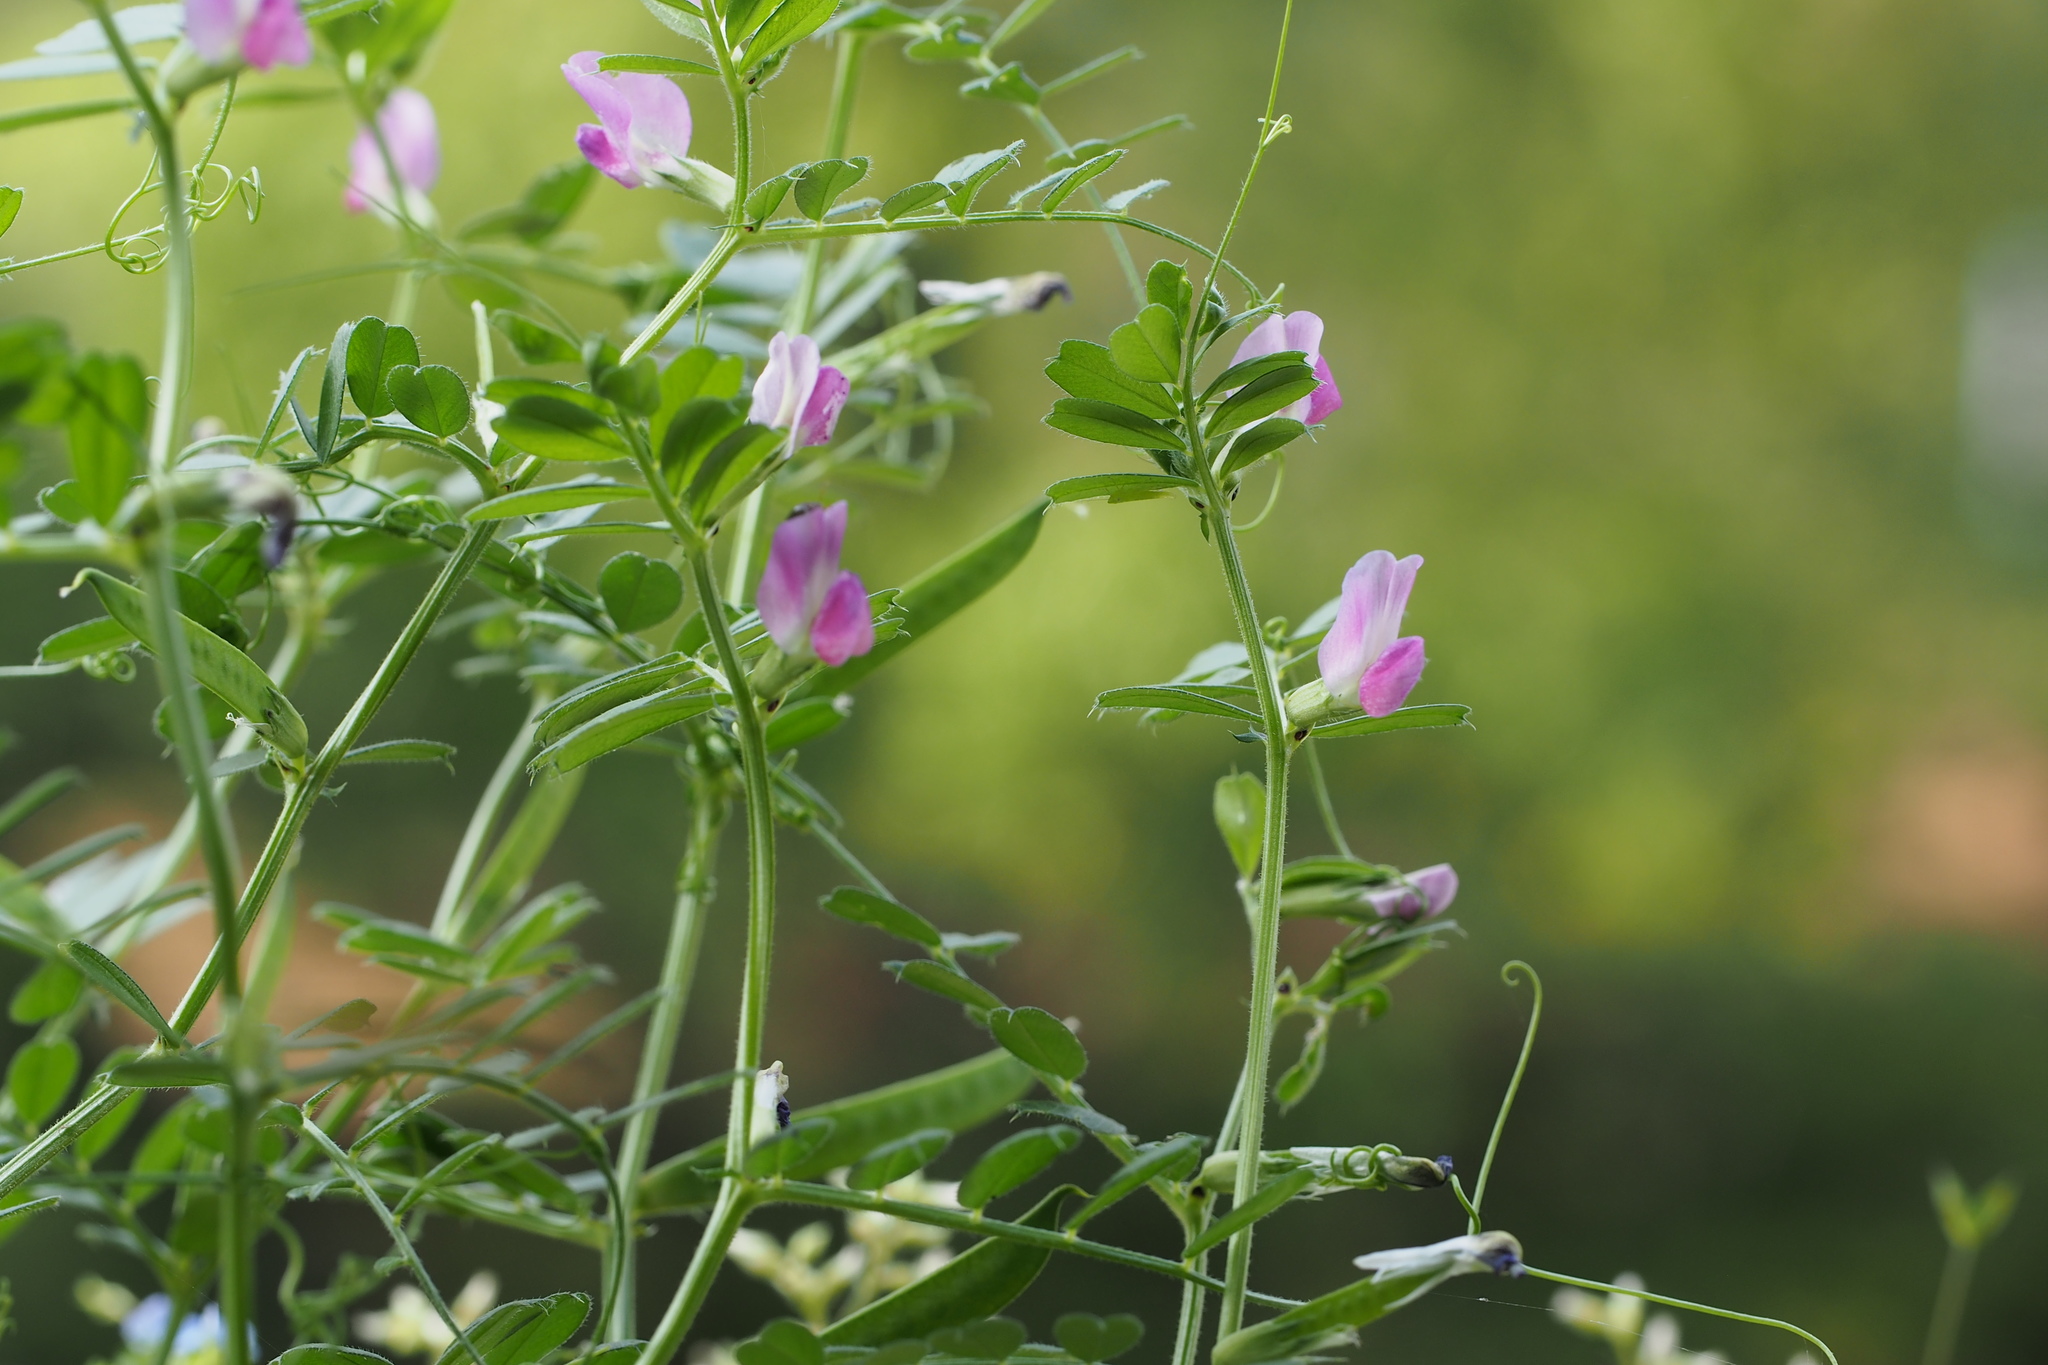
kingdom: Plantae
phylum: Tracheophyta
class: Magnoliopsida
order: Fabales
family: Fabaceae
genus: Vicia
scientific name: Vicia sativa
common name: Garden vetch
